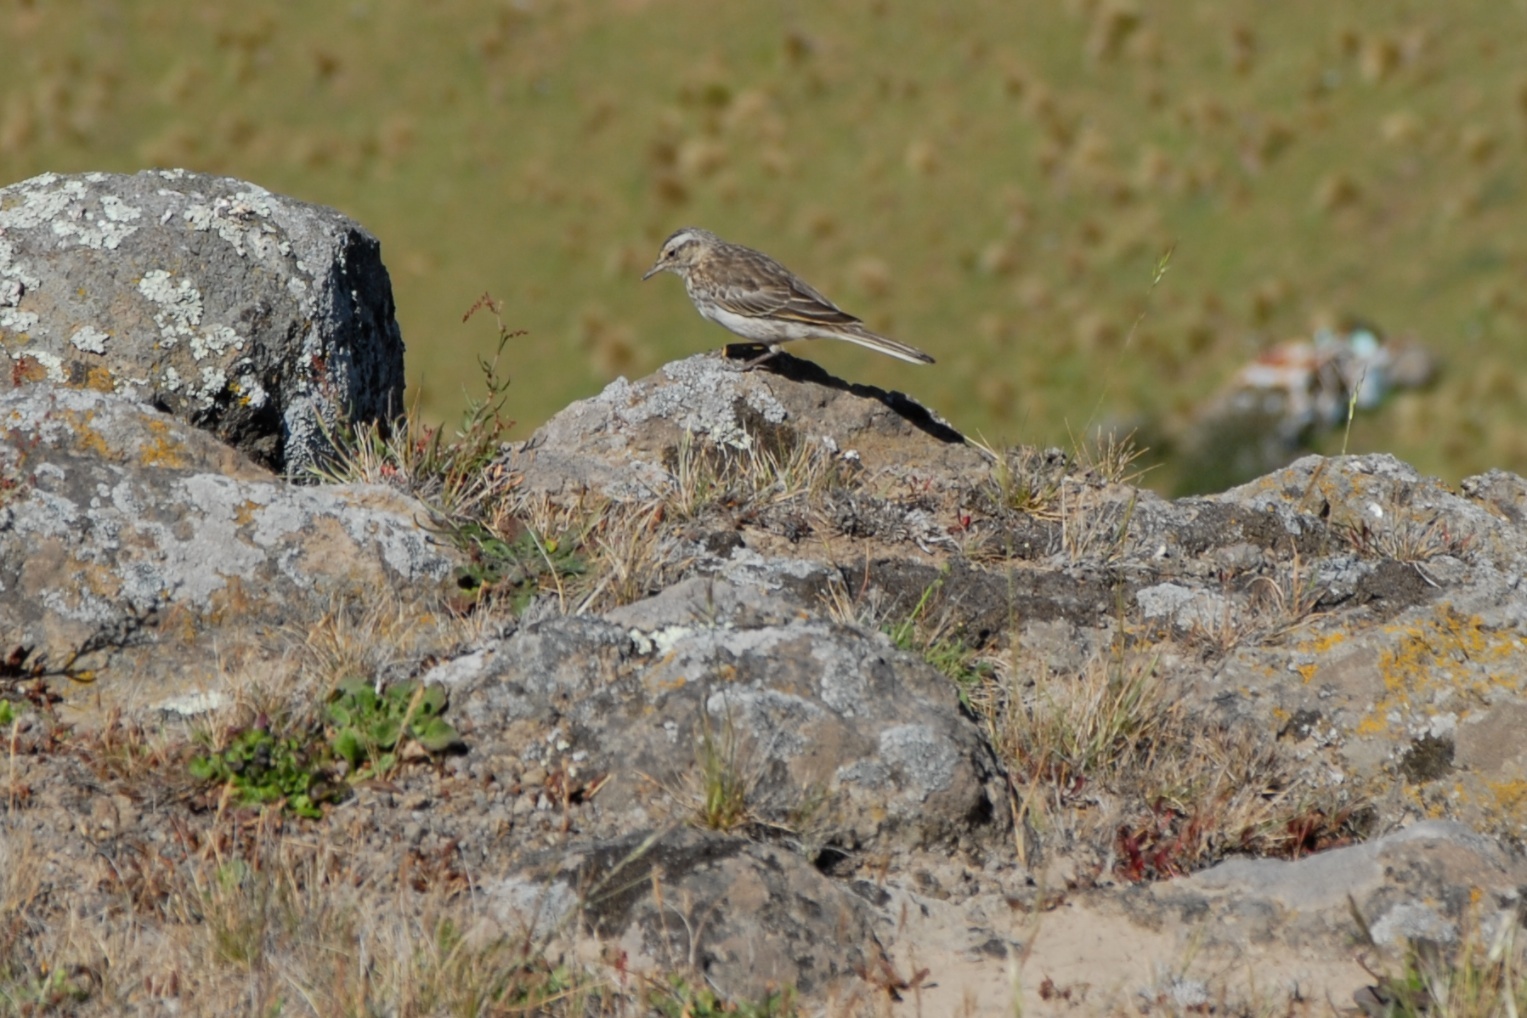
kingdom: Animalia
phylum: Chordata
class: Aves
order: Passeriformes
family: Motacillidae
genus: Anthus
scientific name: Anthus novaeseelandiae
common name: New zealand pipit
